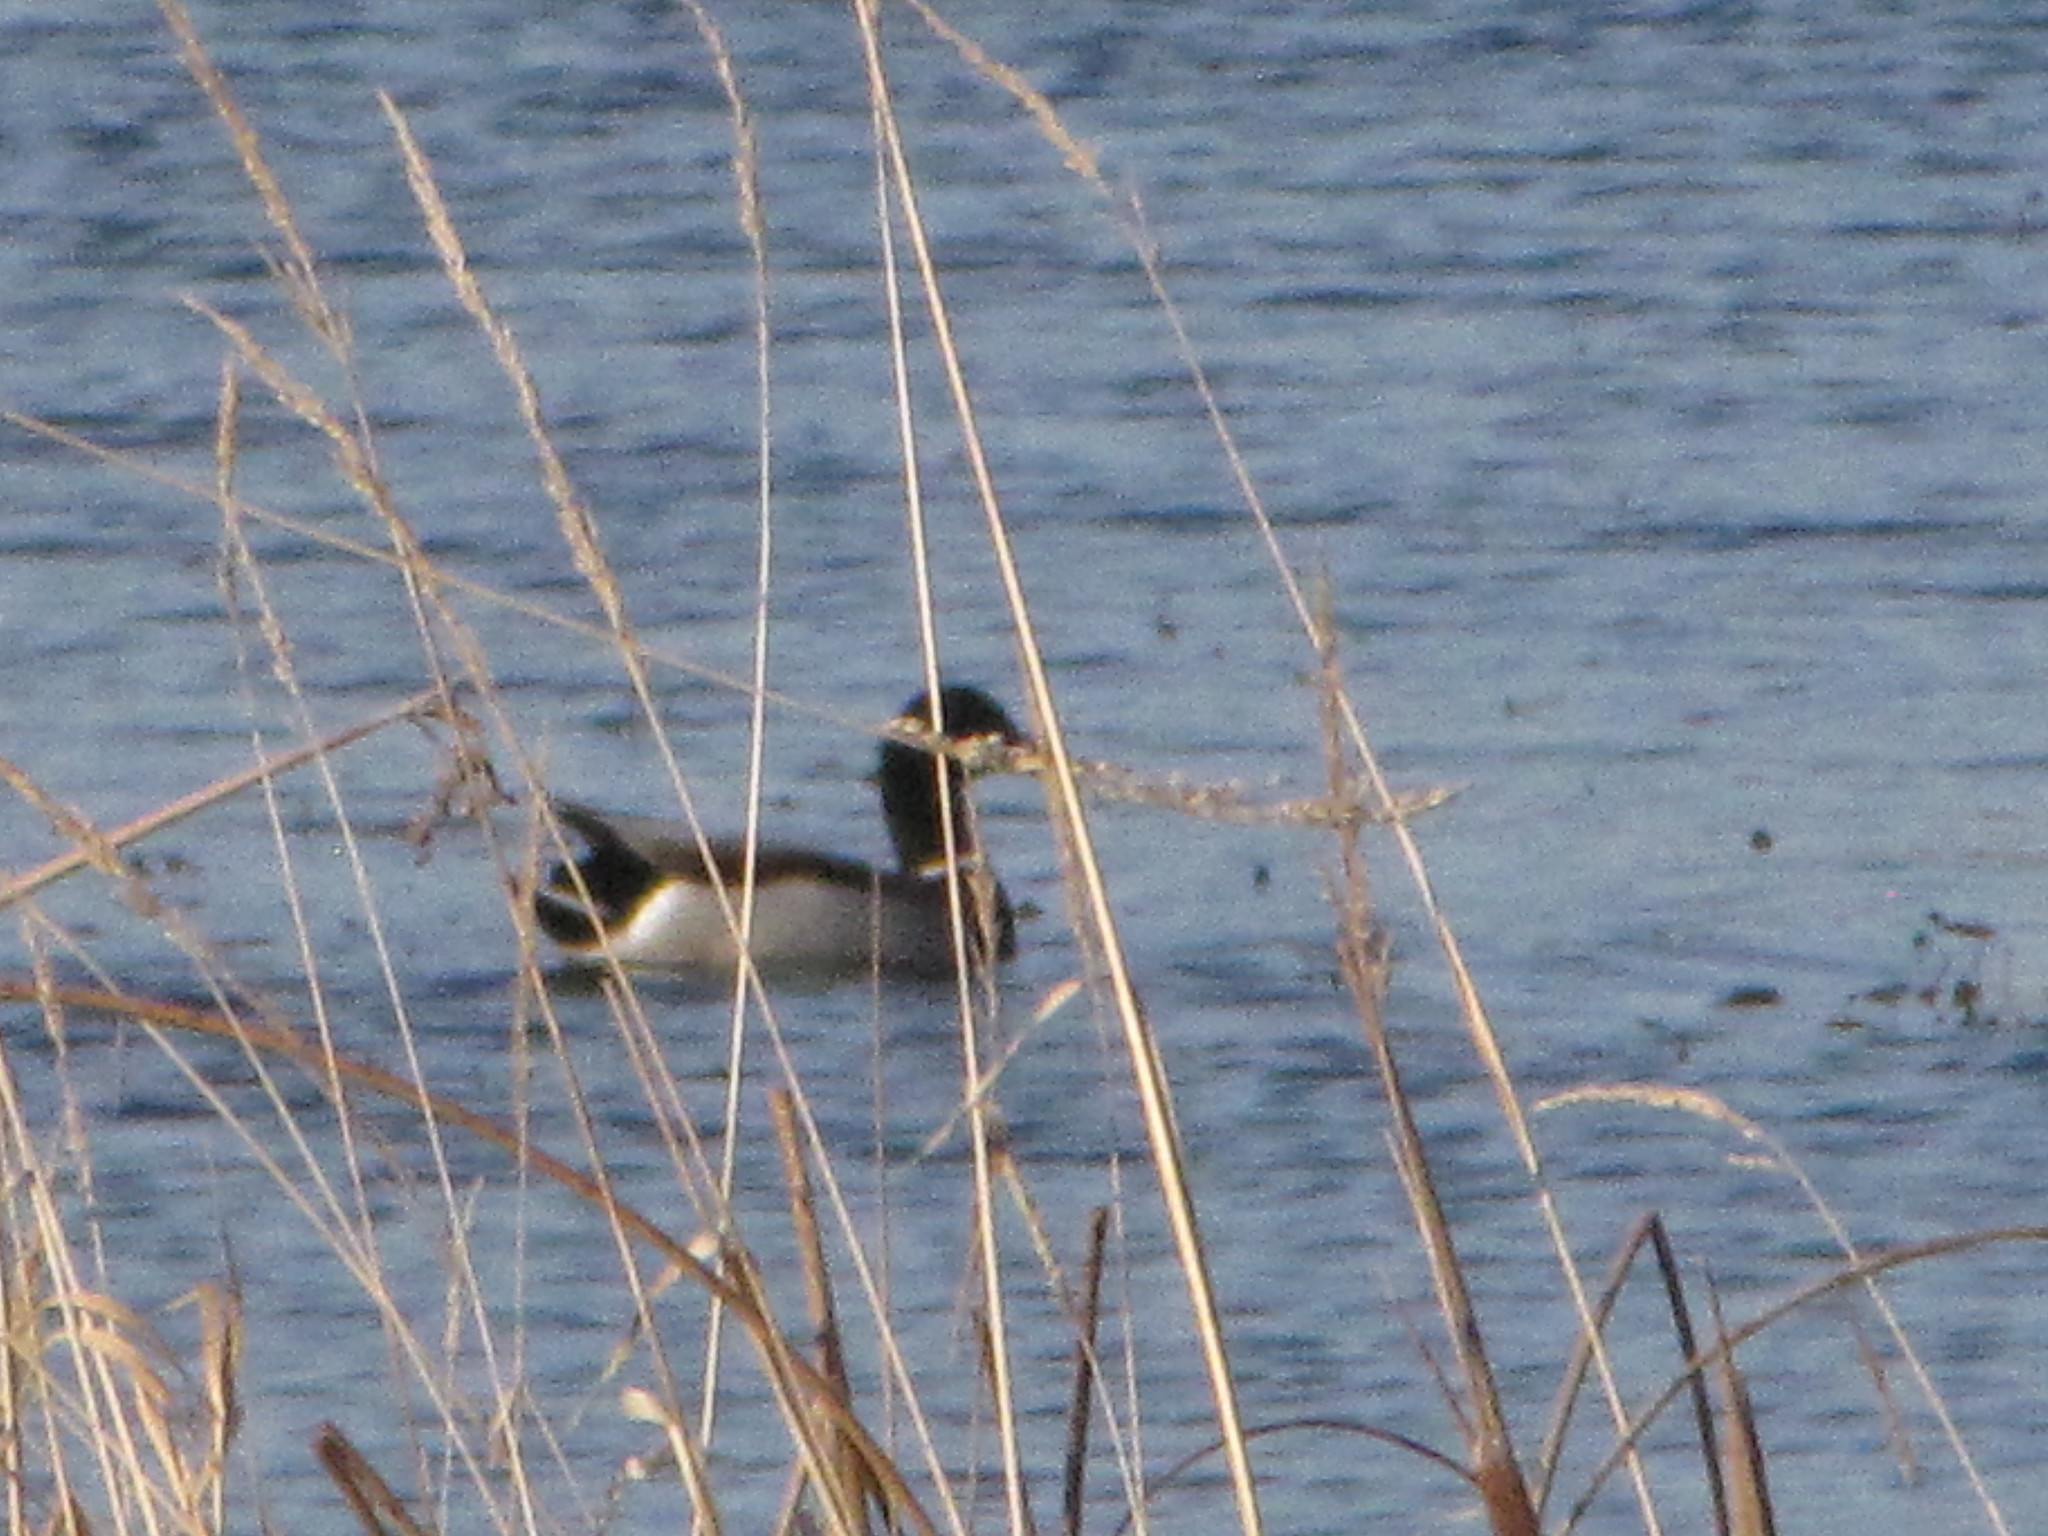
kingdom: Animalia
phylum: Chordata
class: Aves
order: Anseriformes
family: Anatidae
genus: Anas
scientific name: Anas platyrhynchos
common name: Mallard
